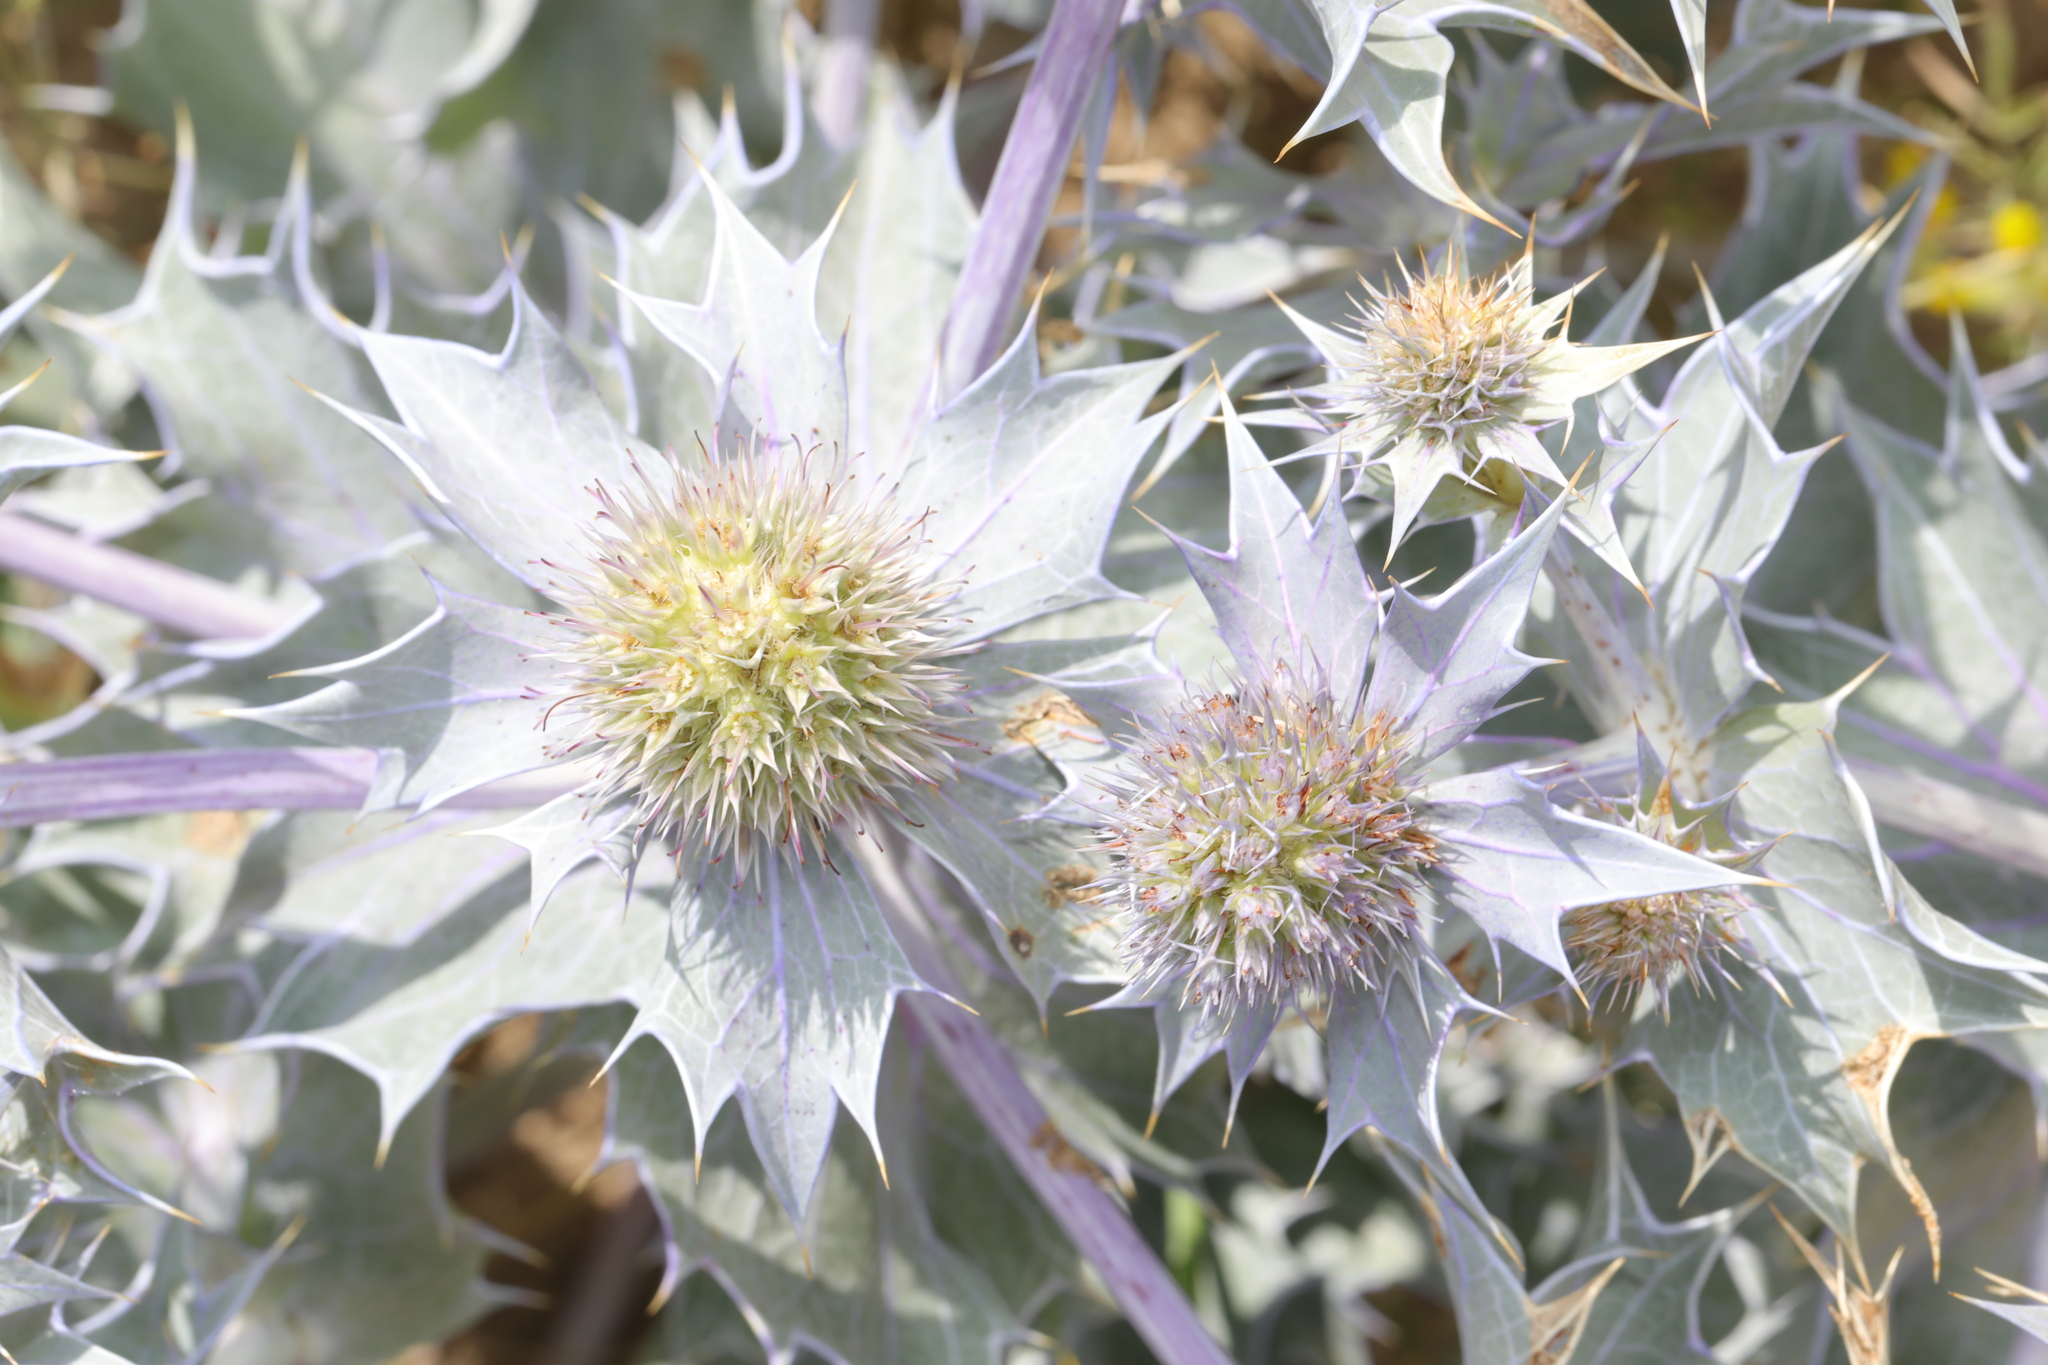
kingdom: Plantae
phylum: Tracheophyta
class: Magnoliopsida
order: Apiales
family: Apiaceae
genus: Eryngium
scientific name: Eryngium maritimum
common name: Sea-holly
